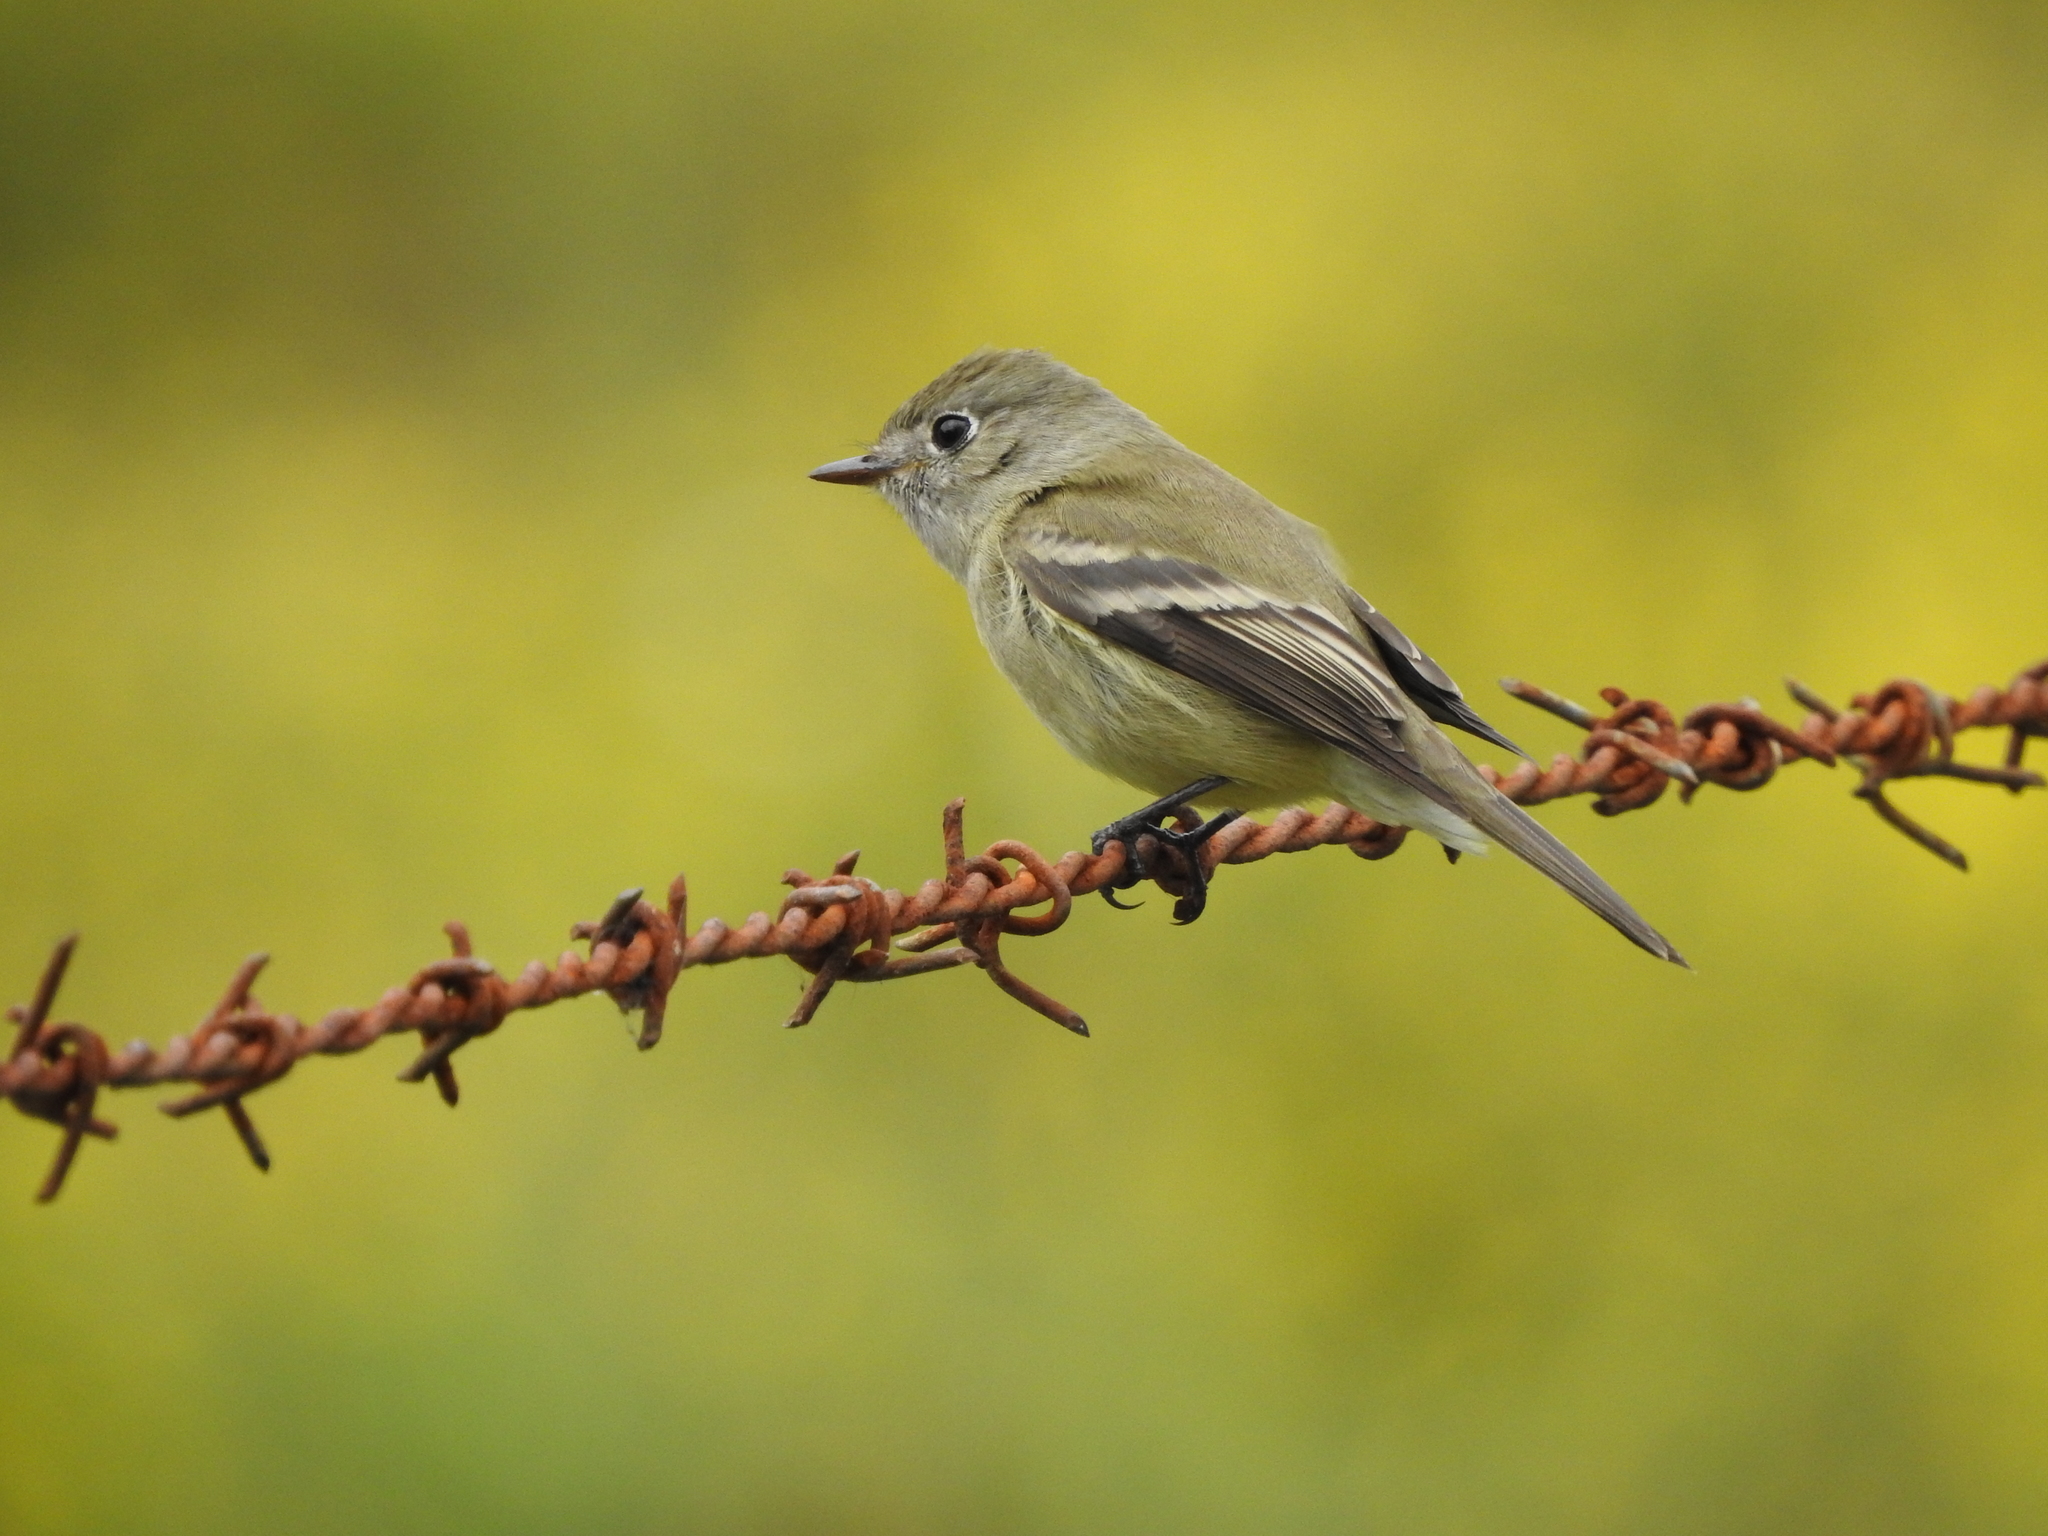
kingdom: Animalia
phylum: Chordata
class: Aves
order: Passeriformes
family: Tyrannidae
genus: Empidonax
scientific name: Empidonax hammondii
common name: Hammond's flycatcher
